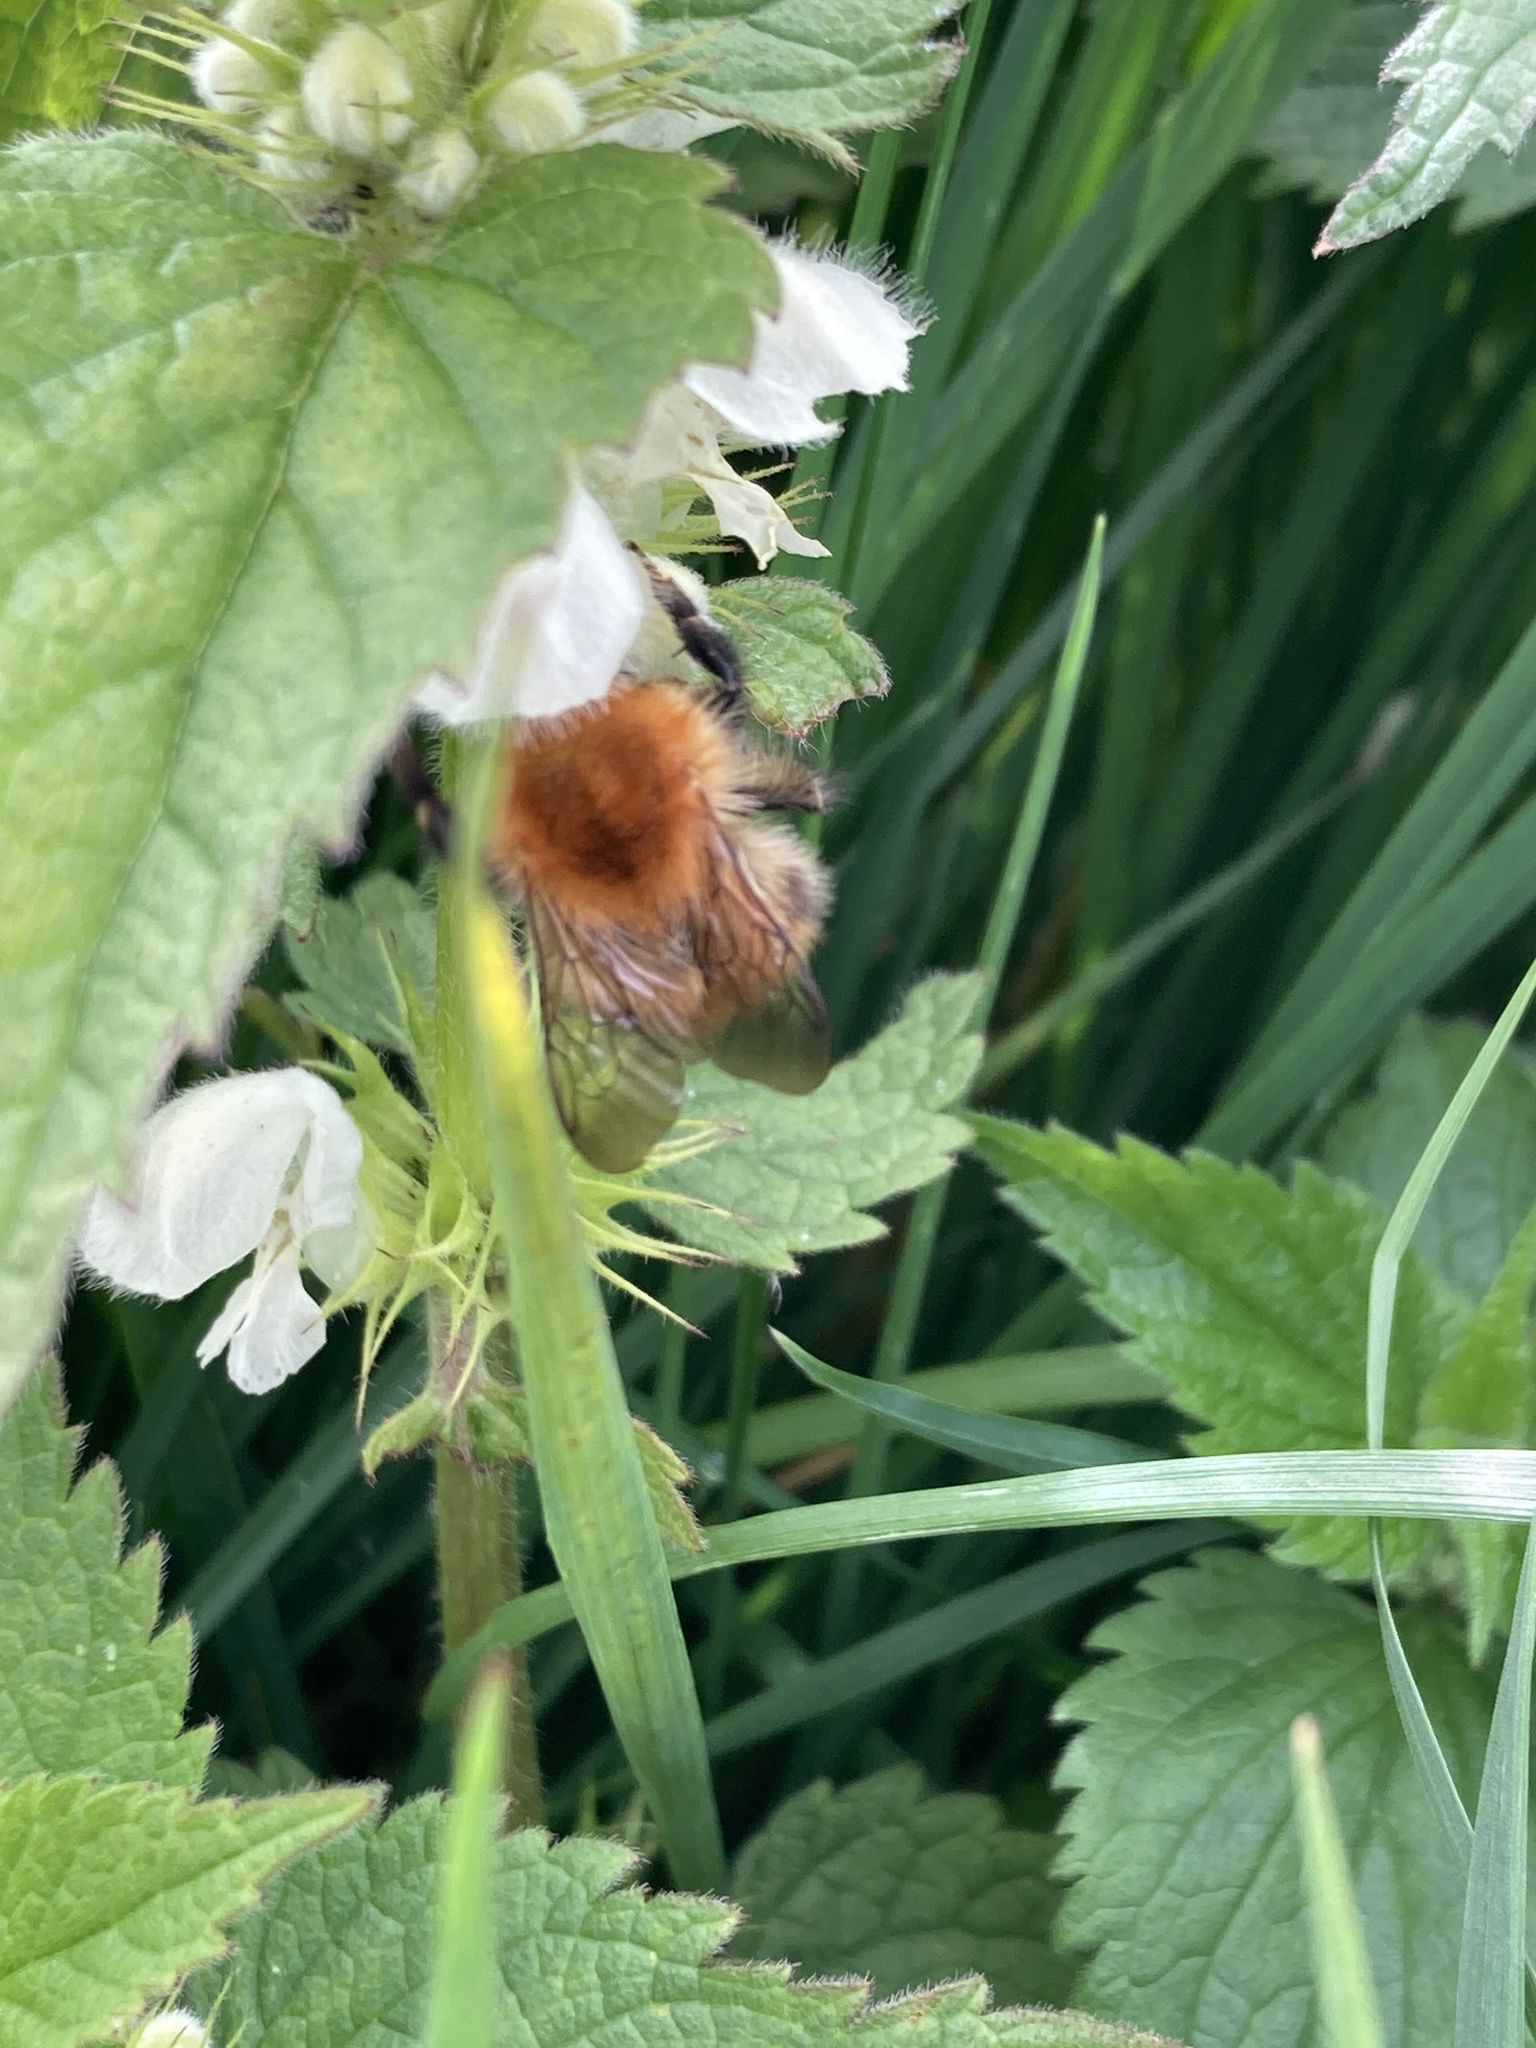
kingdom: Animalia
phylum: Arthropoda
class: Insecta
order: Hymenoptera
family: Apidae
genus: Bombus
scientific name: Bombus pascuorum
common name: Common carder bee
